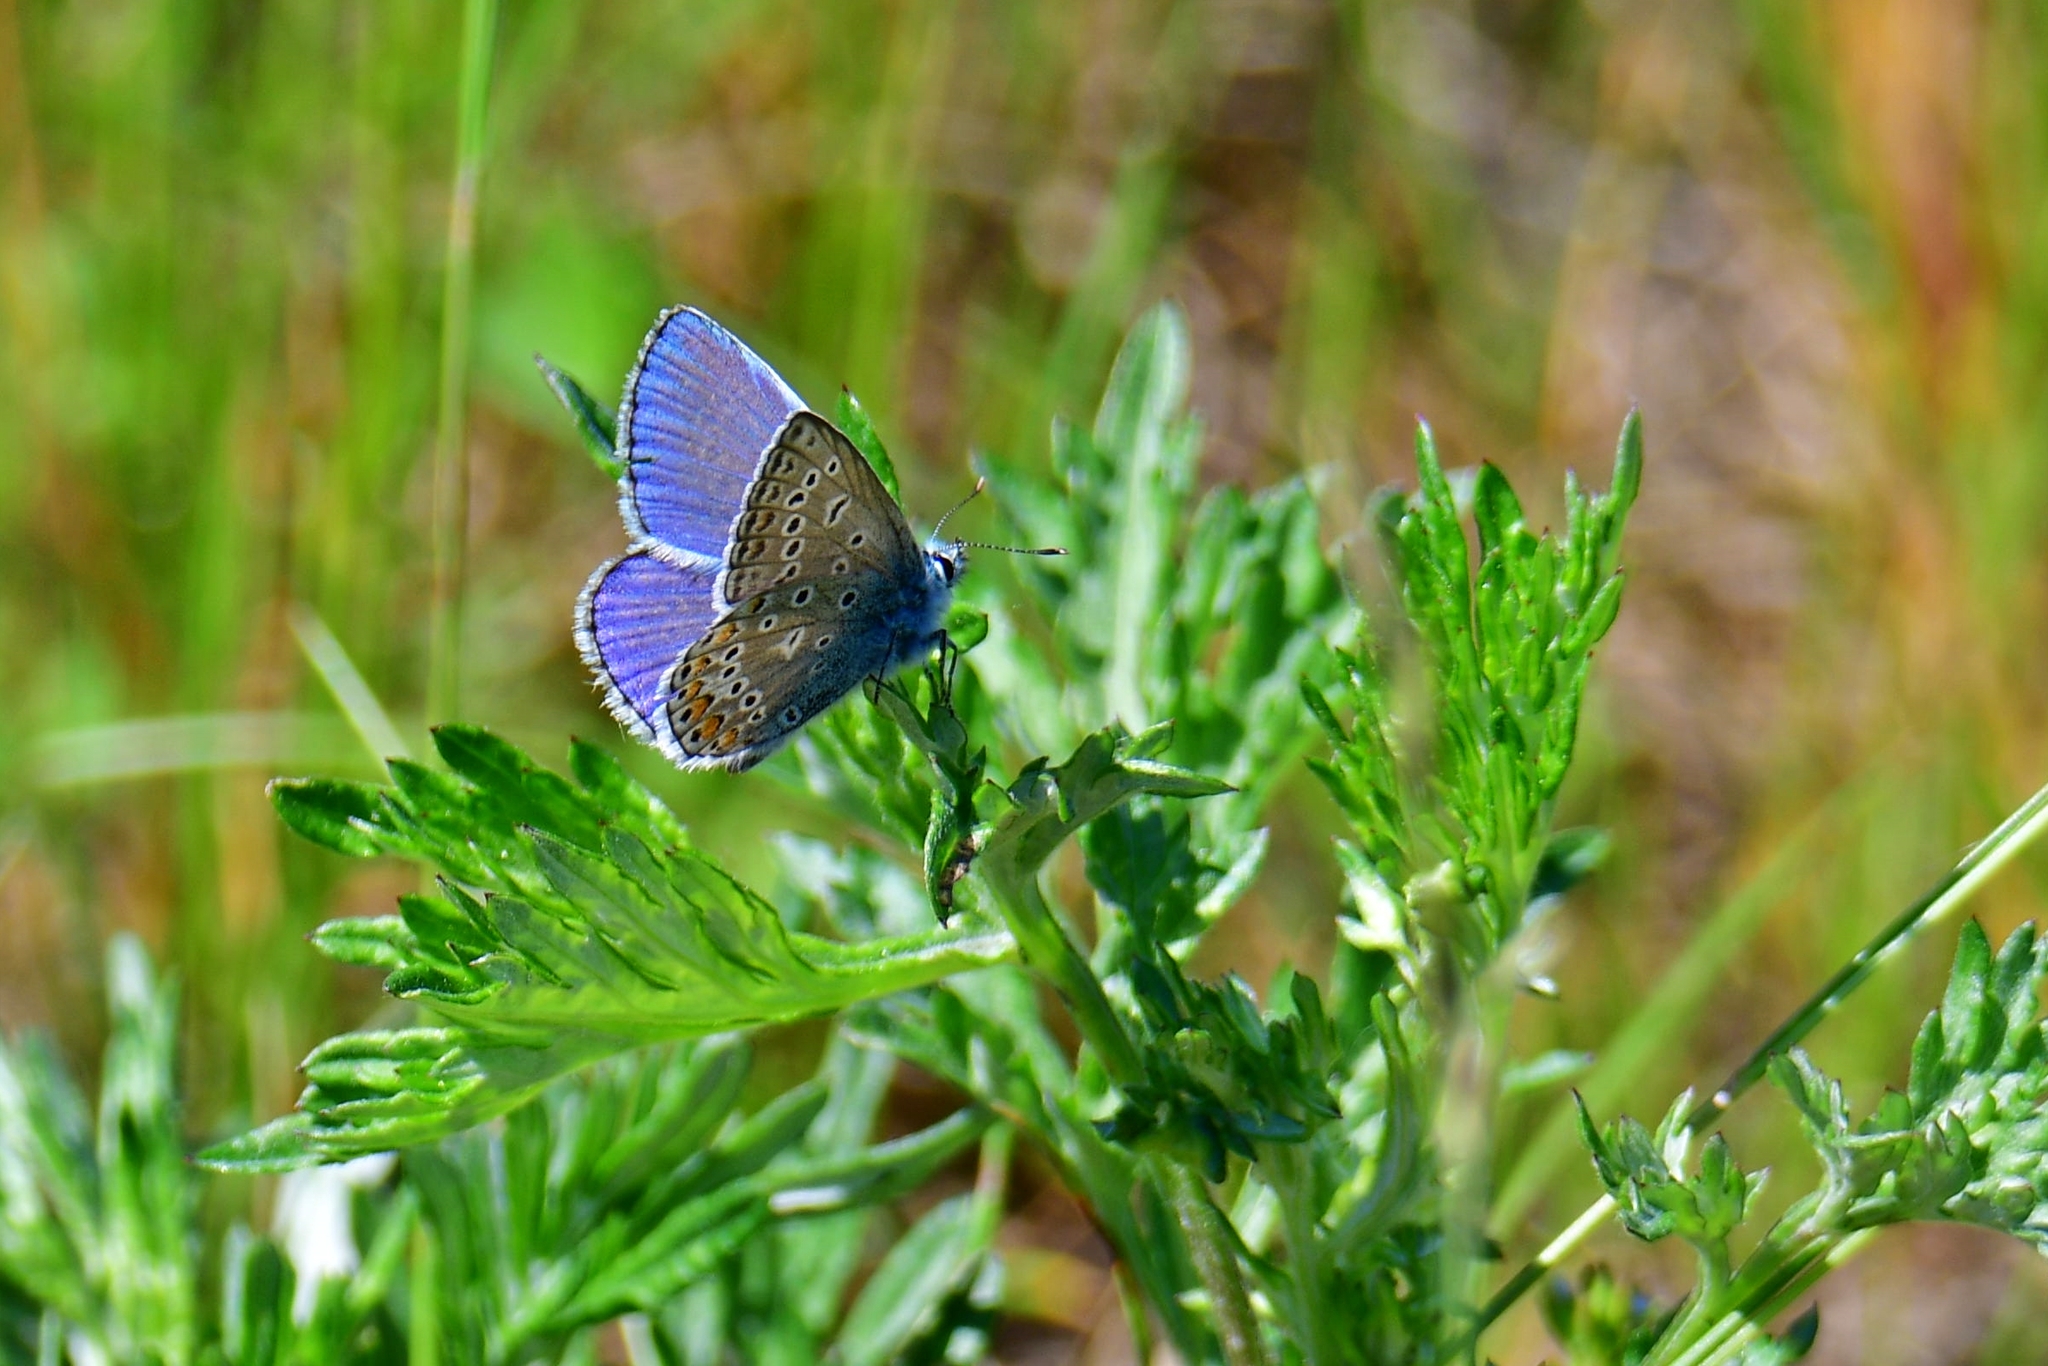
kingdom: Animalia
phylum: Arthropoda
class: Insecta
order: Lepidoptera
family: Lycaenidae
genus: Polyommatus
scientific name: Polyommatus icarus
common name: Common blue
